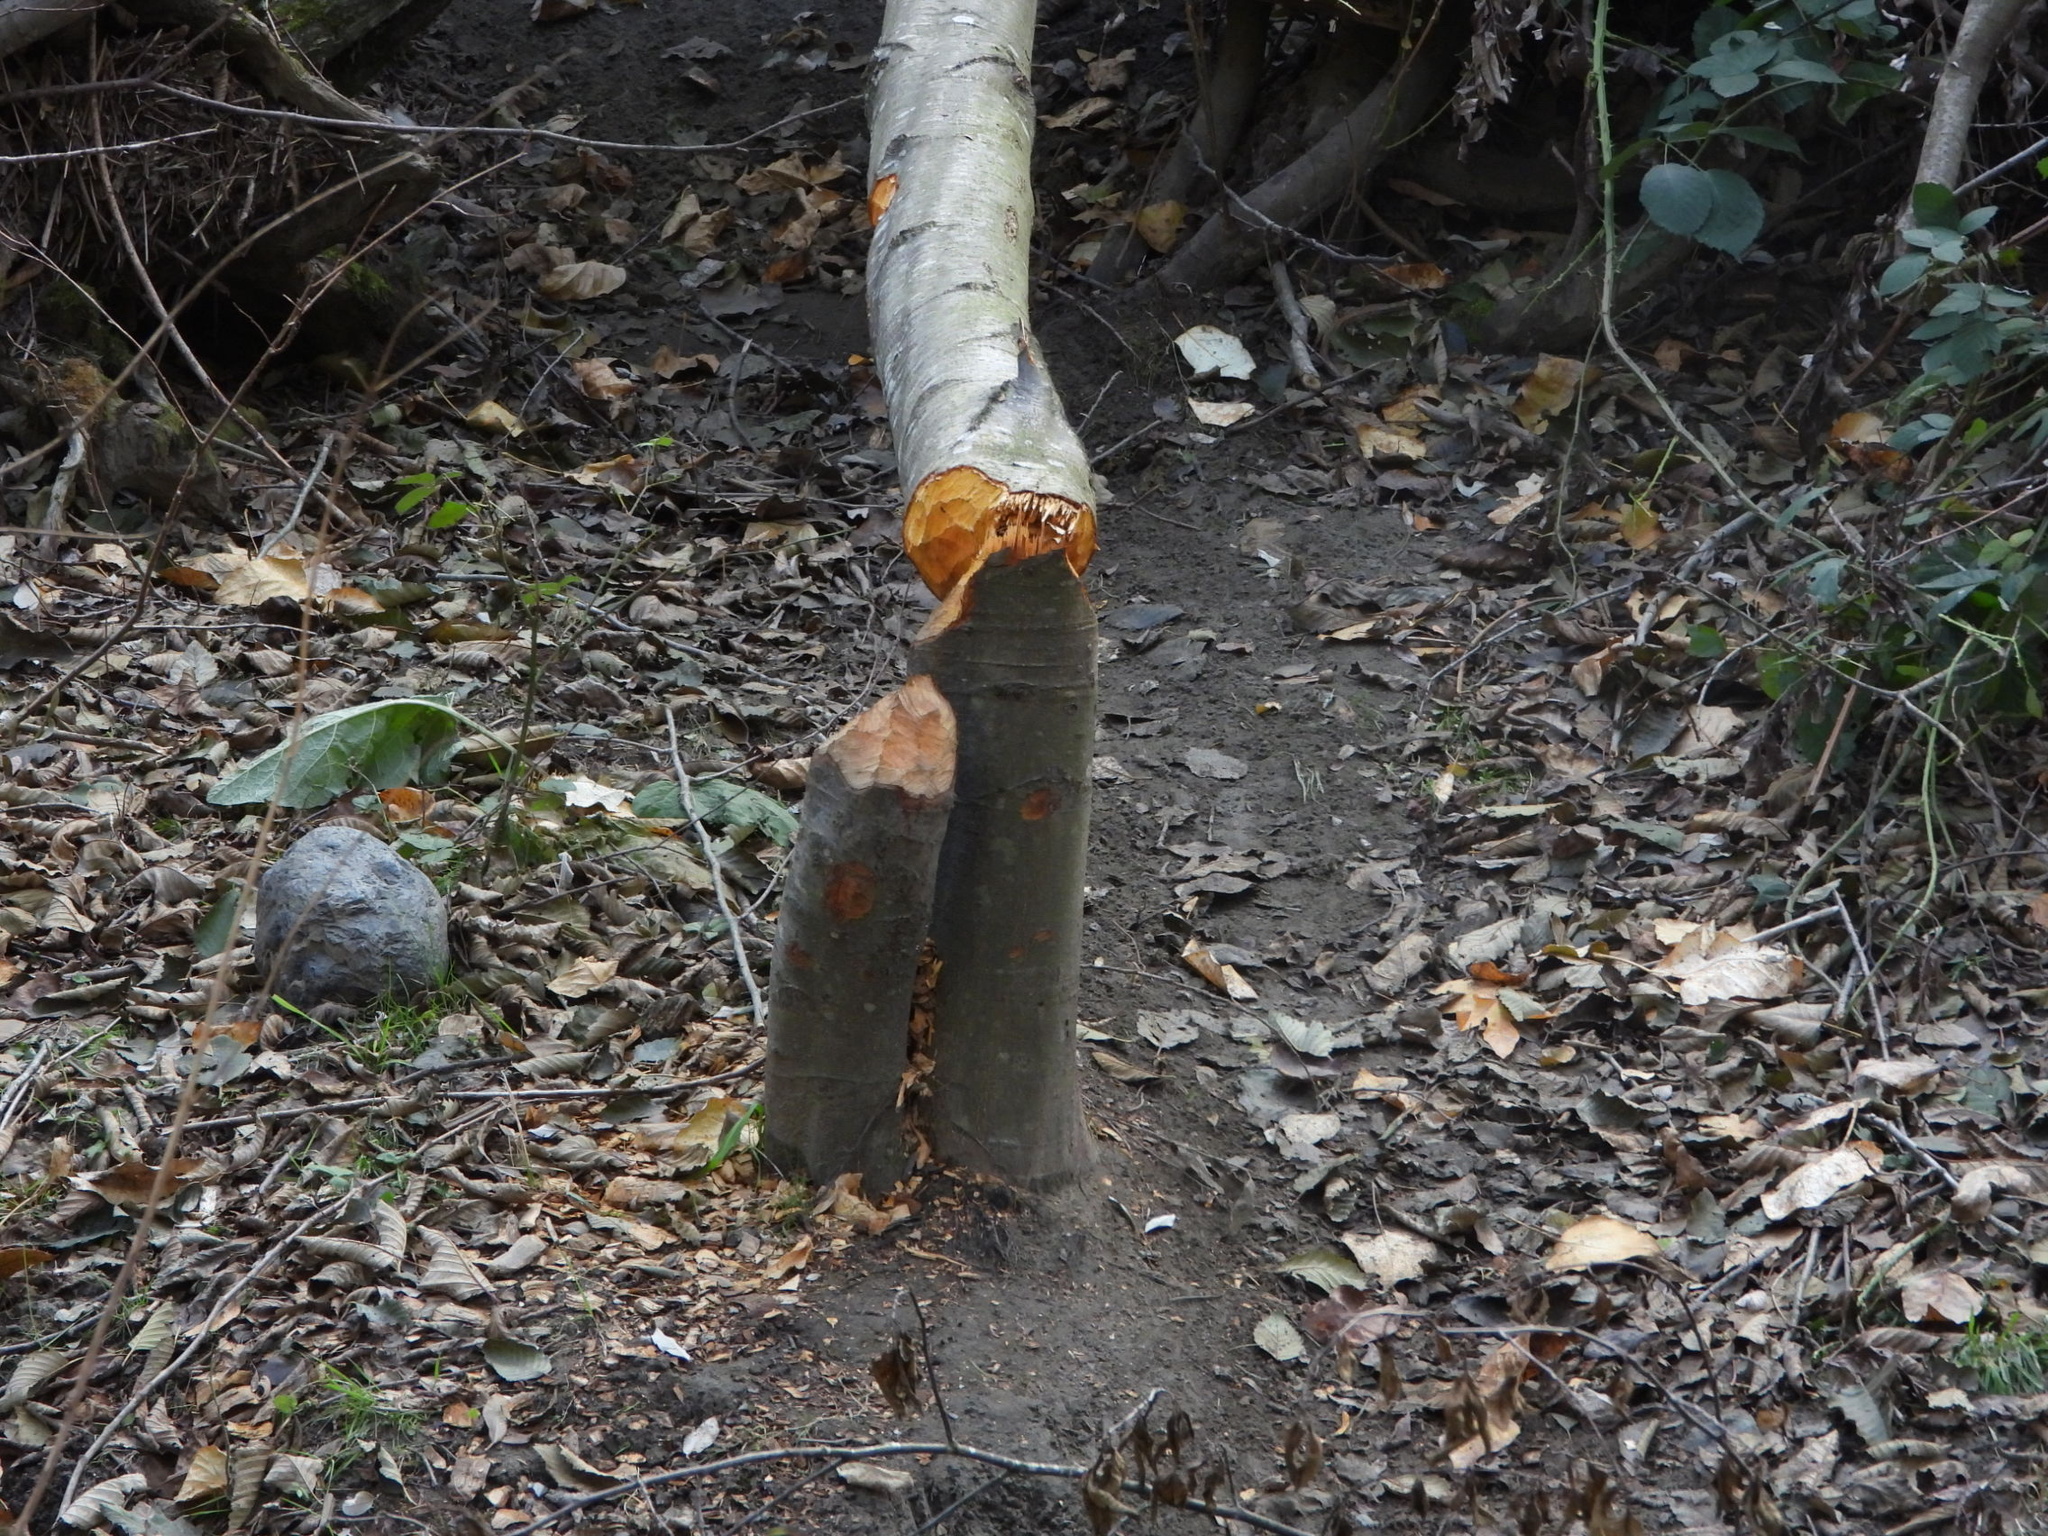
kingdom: Animalia
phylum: Chordata
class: Mammalia
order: Rodentia
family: Castoridae
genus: Castor
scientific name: Castor canadensis
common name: American beaver
